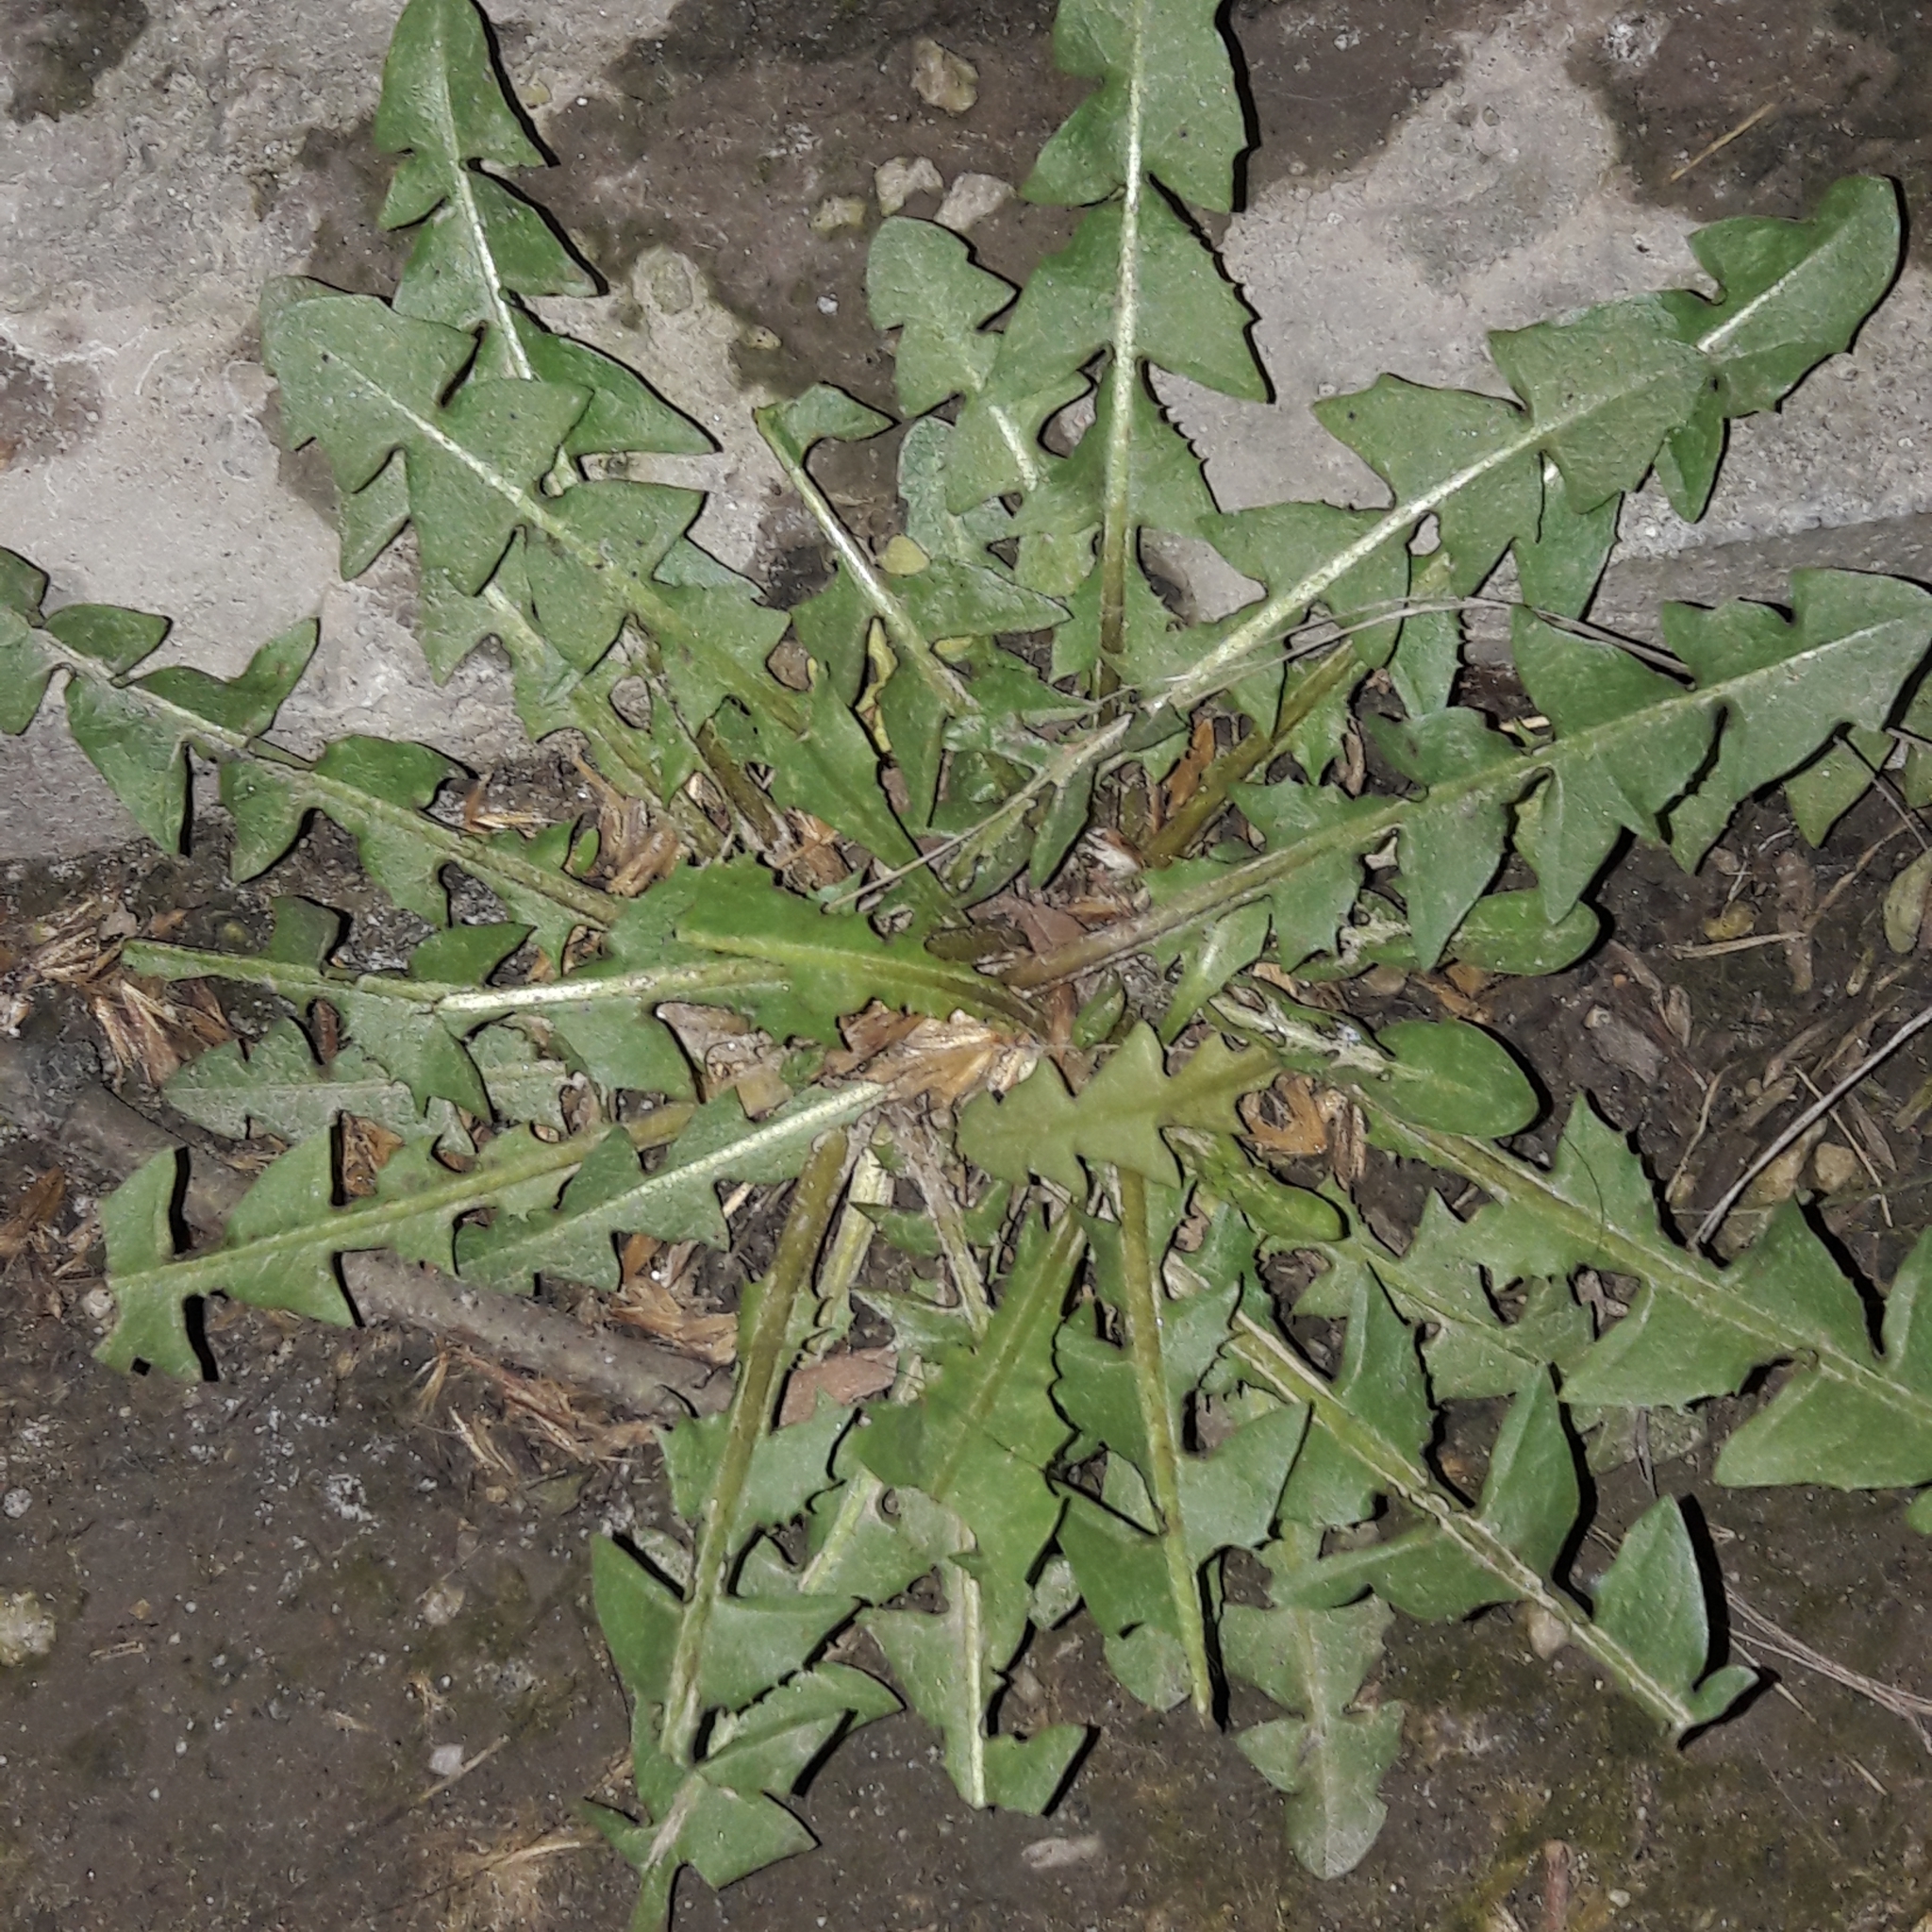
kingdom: Plantae
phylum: Tracheophyta
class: Magnoliopsida
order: Asterales
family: Asteraceae
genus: Taraxacum
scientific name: Taraxacum officinale
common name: Common dandelion
